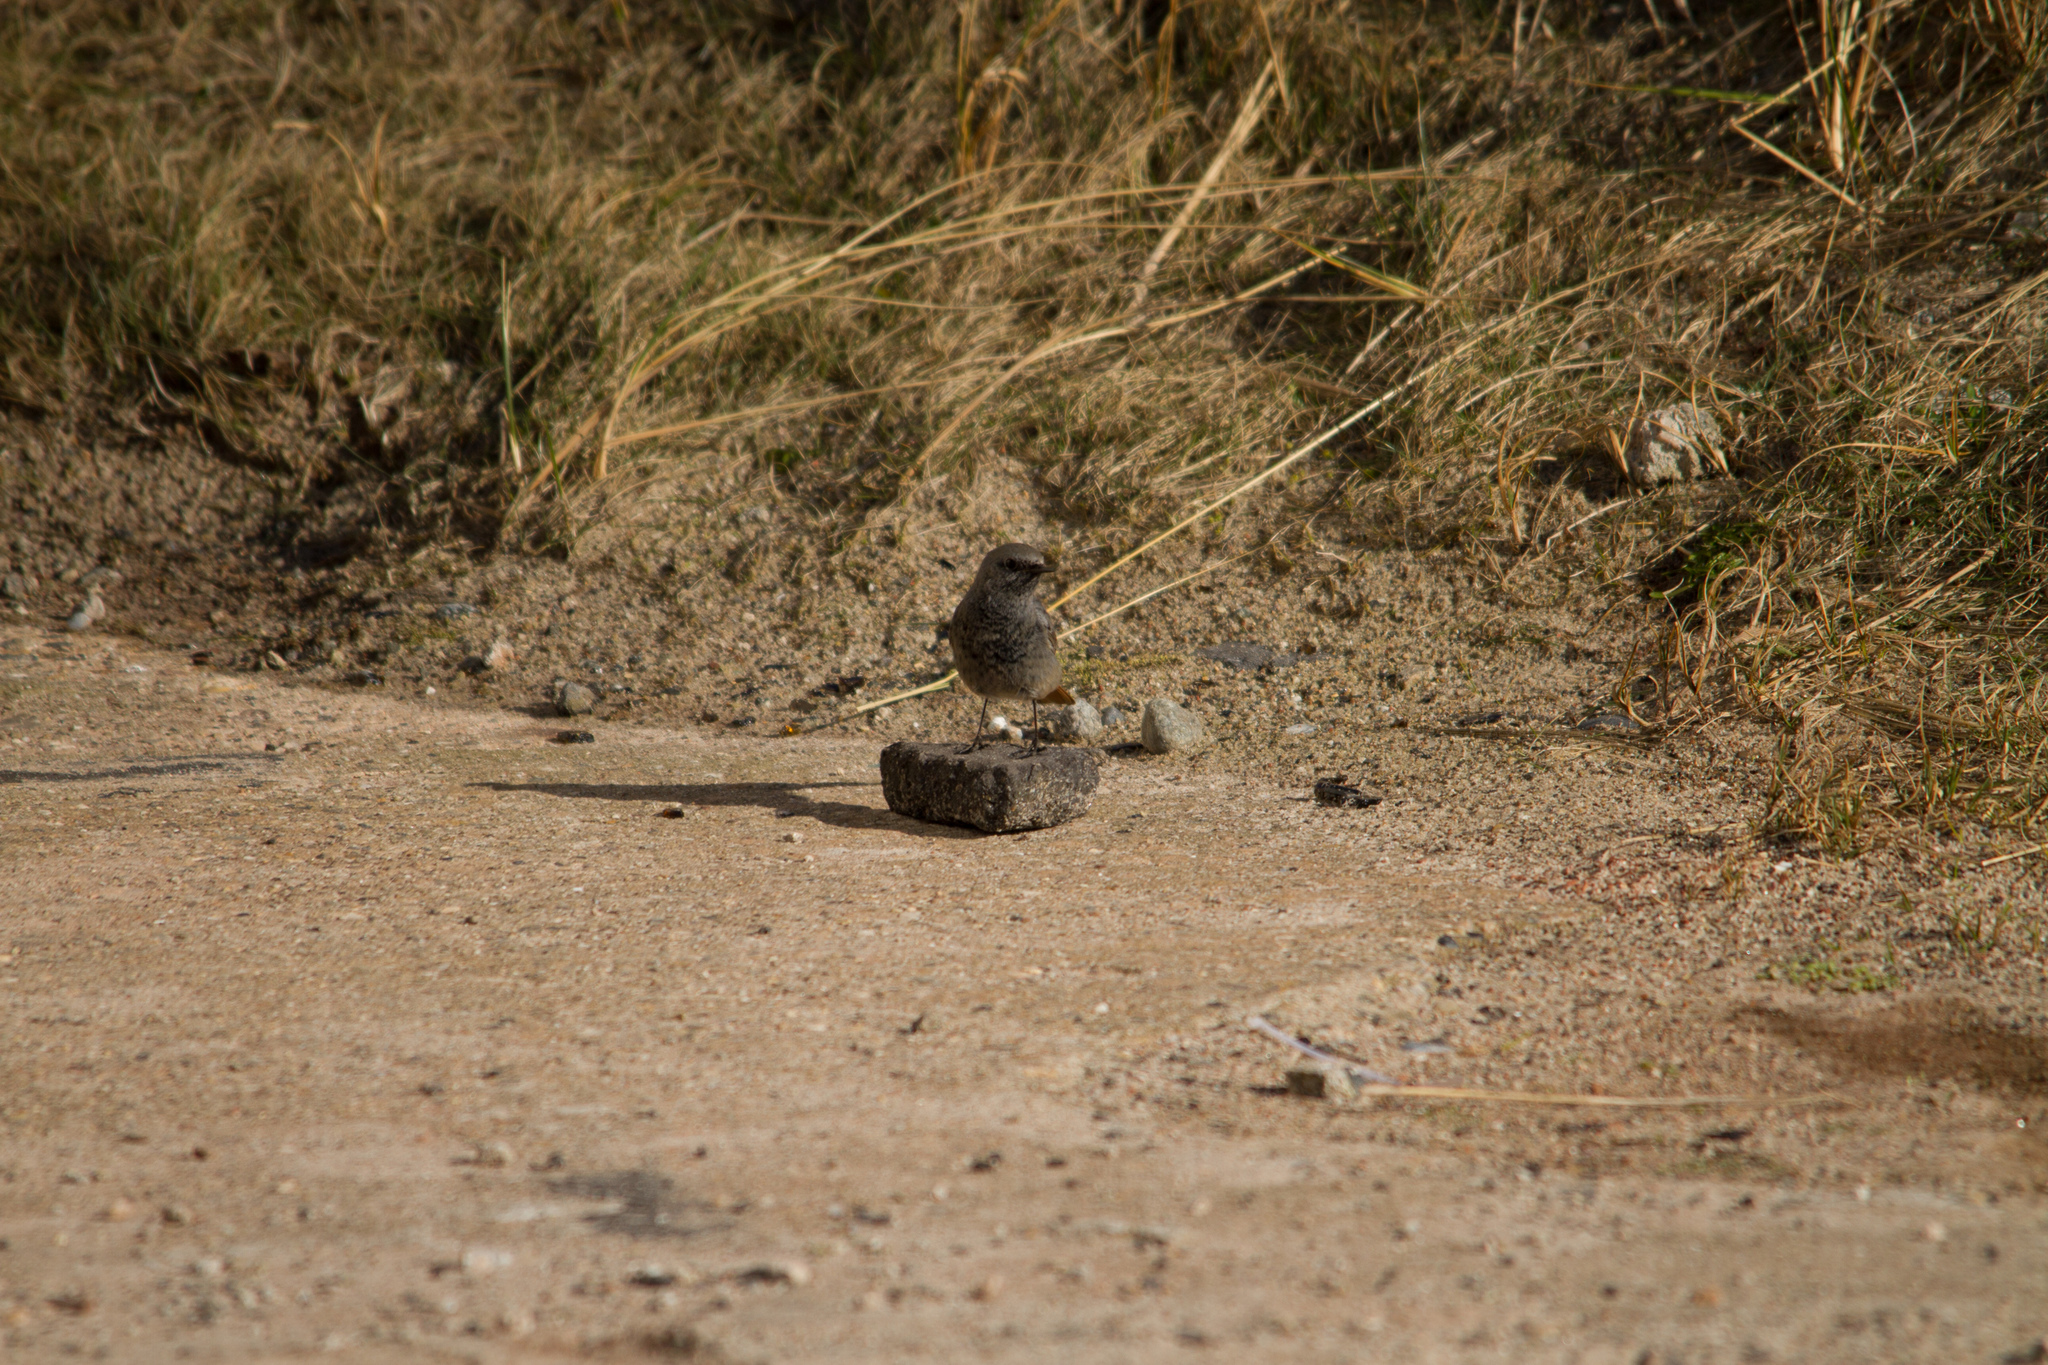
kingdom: Animalia
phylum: Chordata
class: Aves
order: Passeriformes
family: Muscicapidae
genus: Phoenicurus
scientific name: Phoenicurus ochruros
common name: Black redstart
